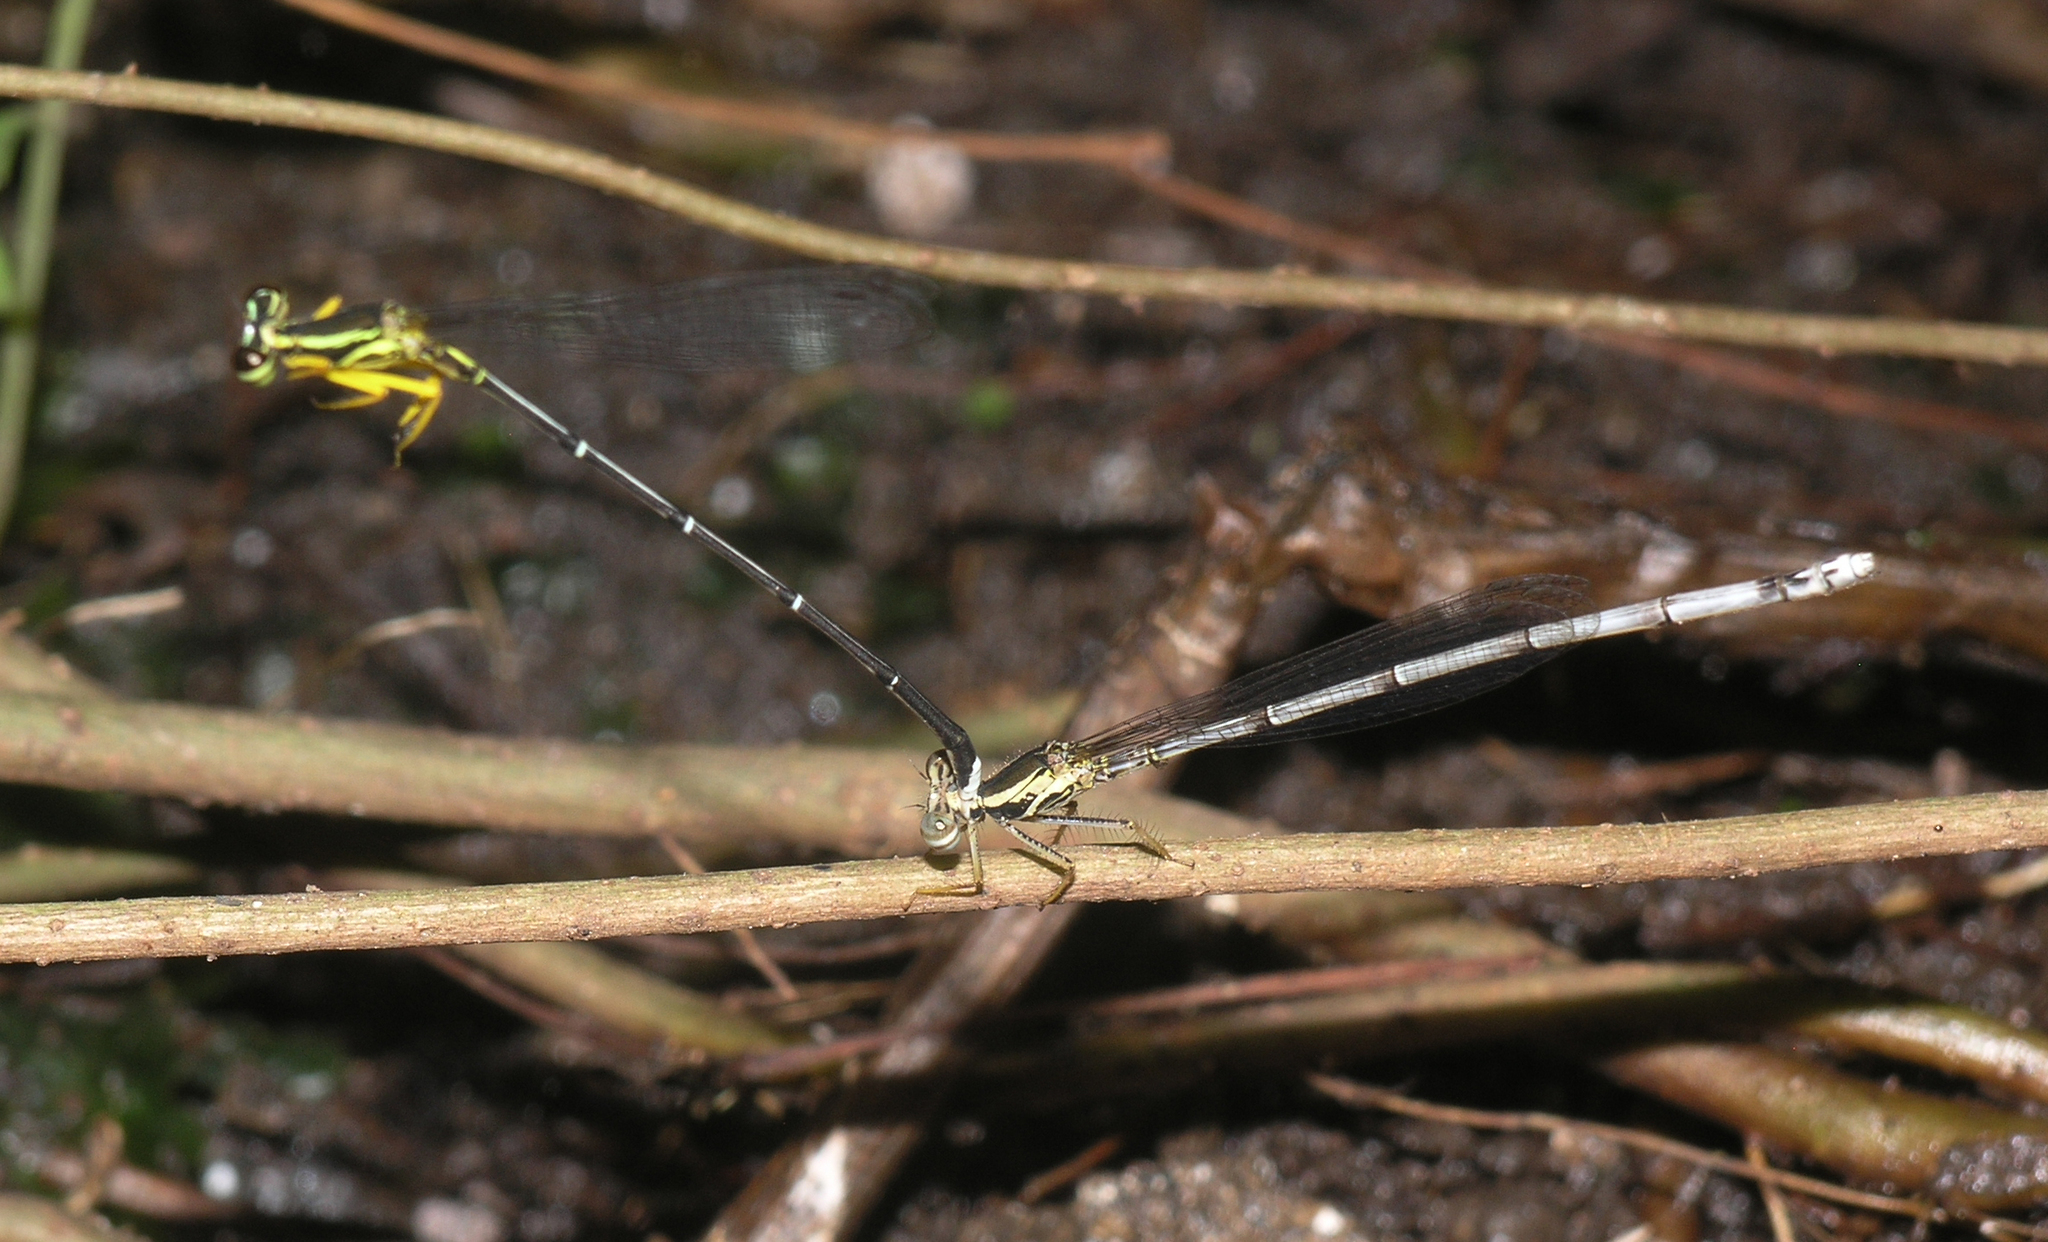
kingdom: Animalia
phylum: Arthropoda
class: Insecta
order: Odonata
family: Platycnemididae
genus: Copera
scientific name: Copera marginipes
